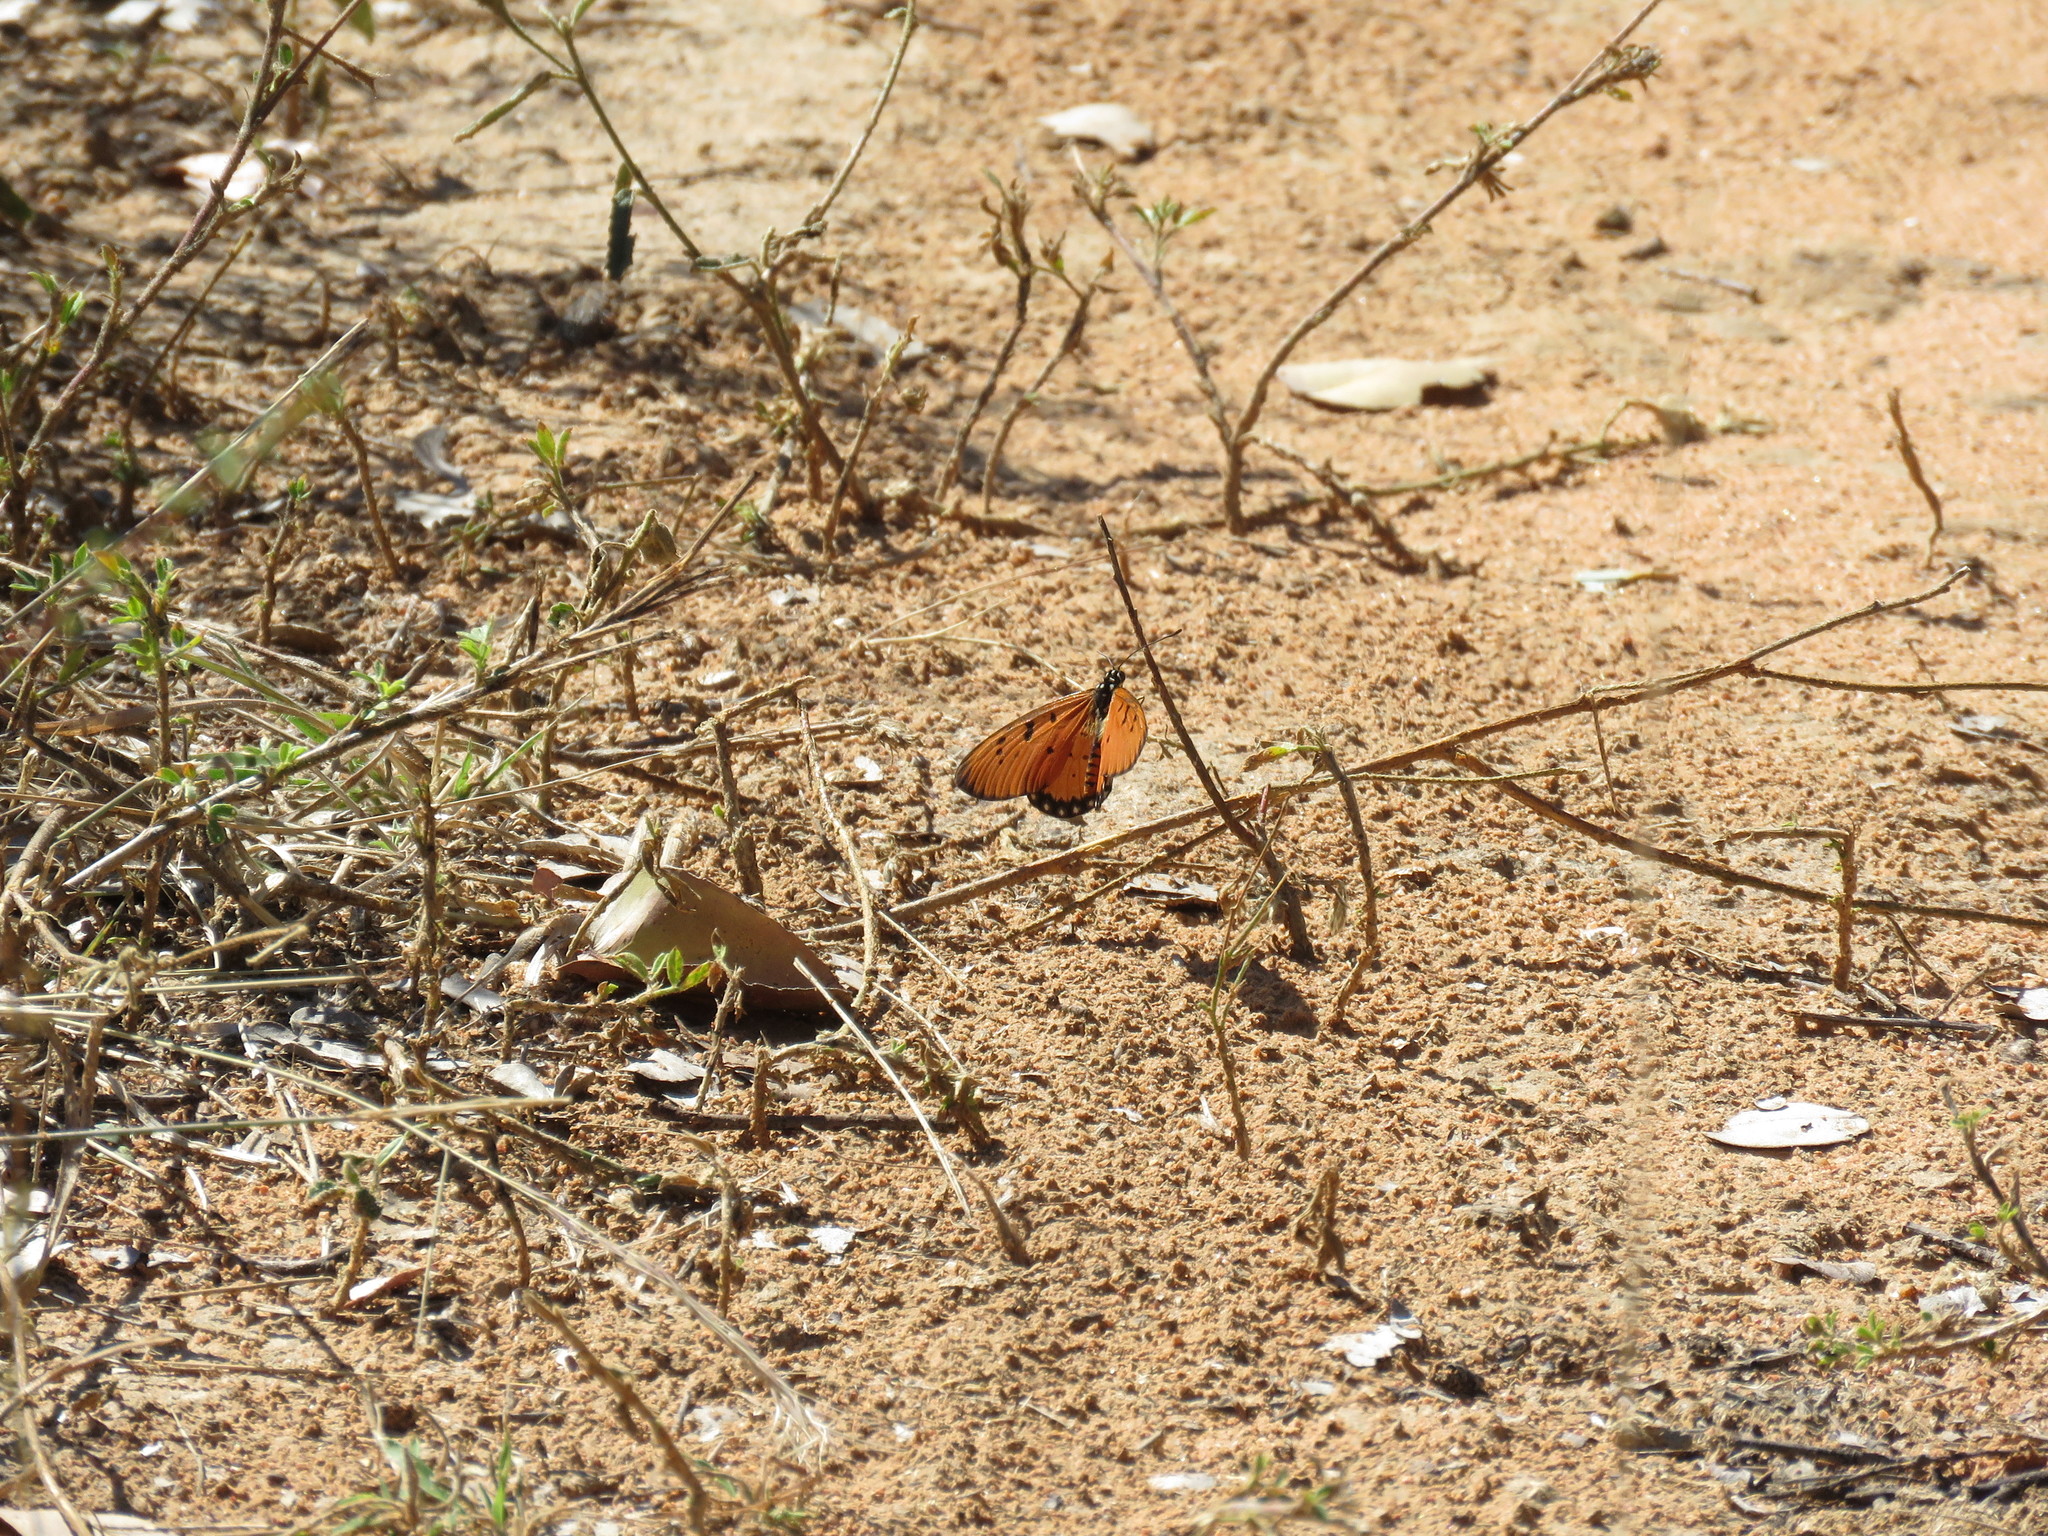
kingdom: Animalia
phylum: Arthropoda
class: Insecta
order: Lepidoptera
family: Nymphalidae
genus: Acraea
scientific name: Acraea terpsicore
